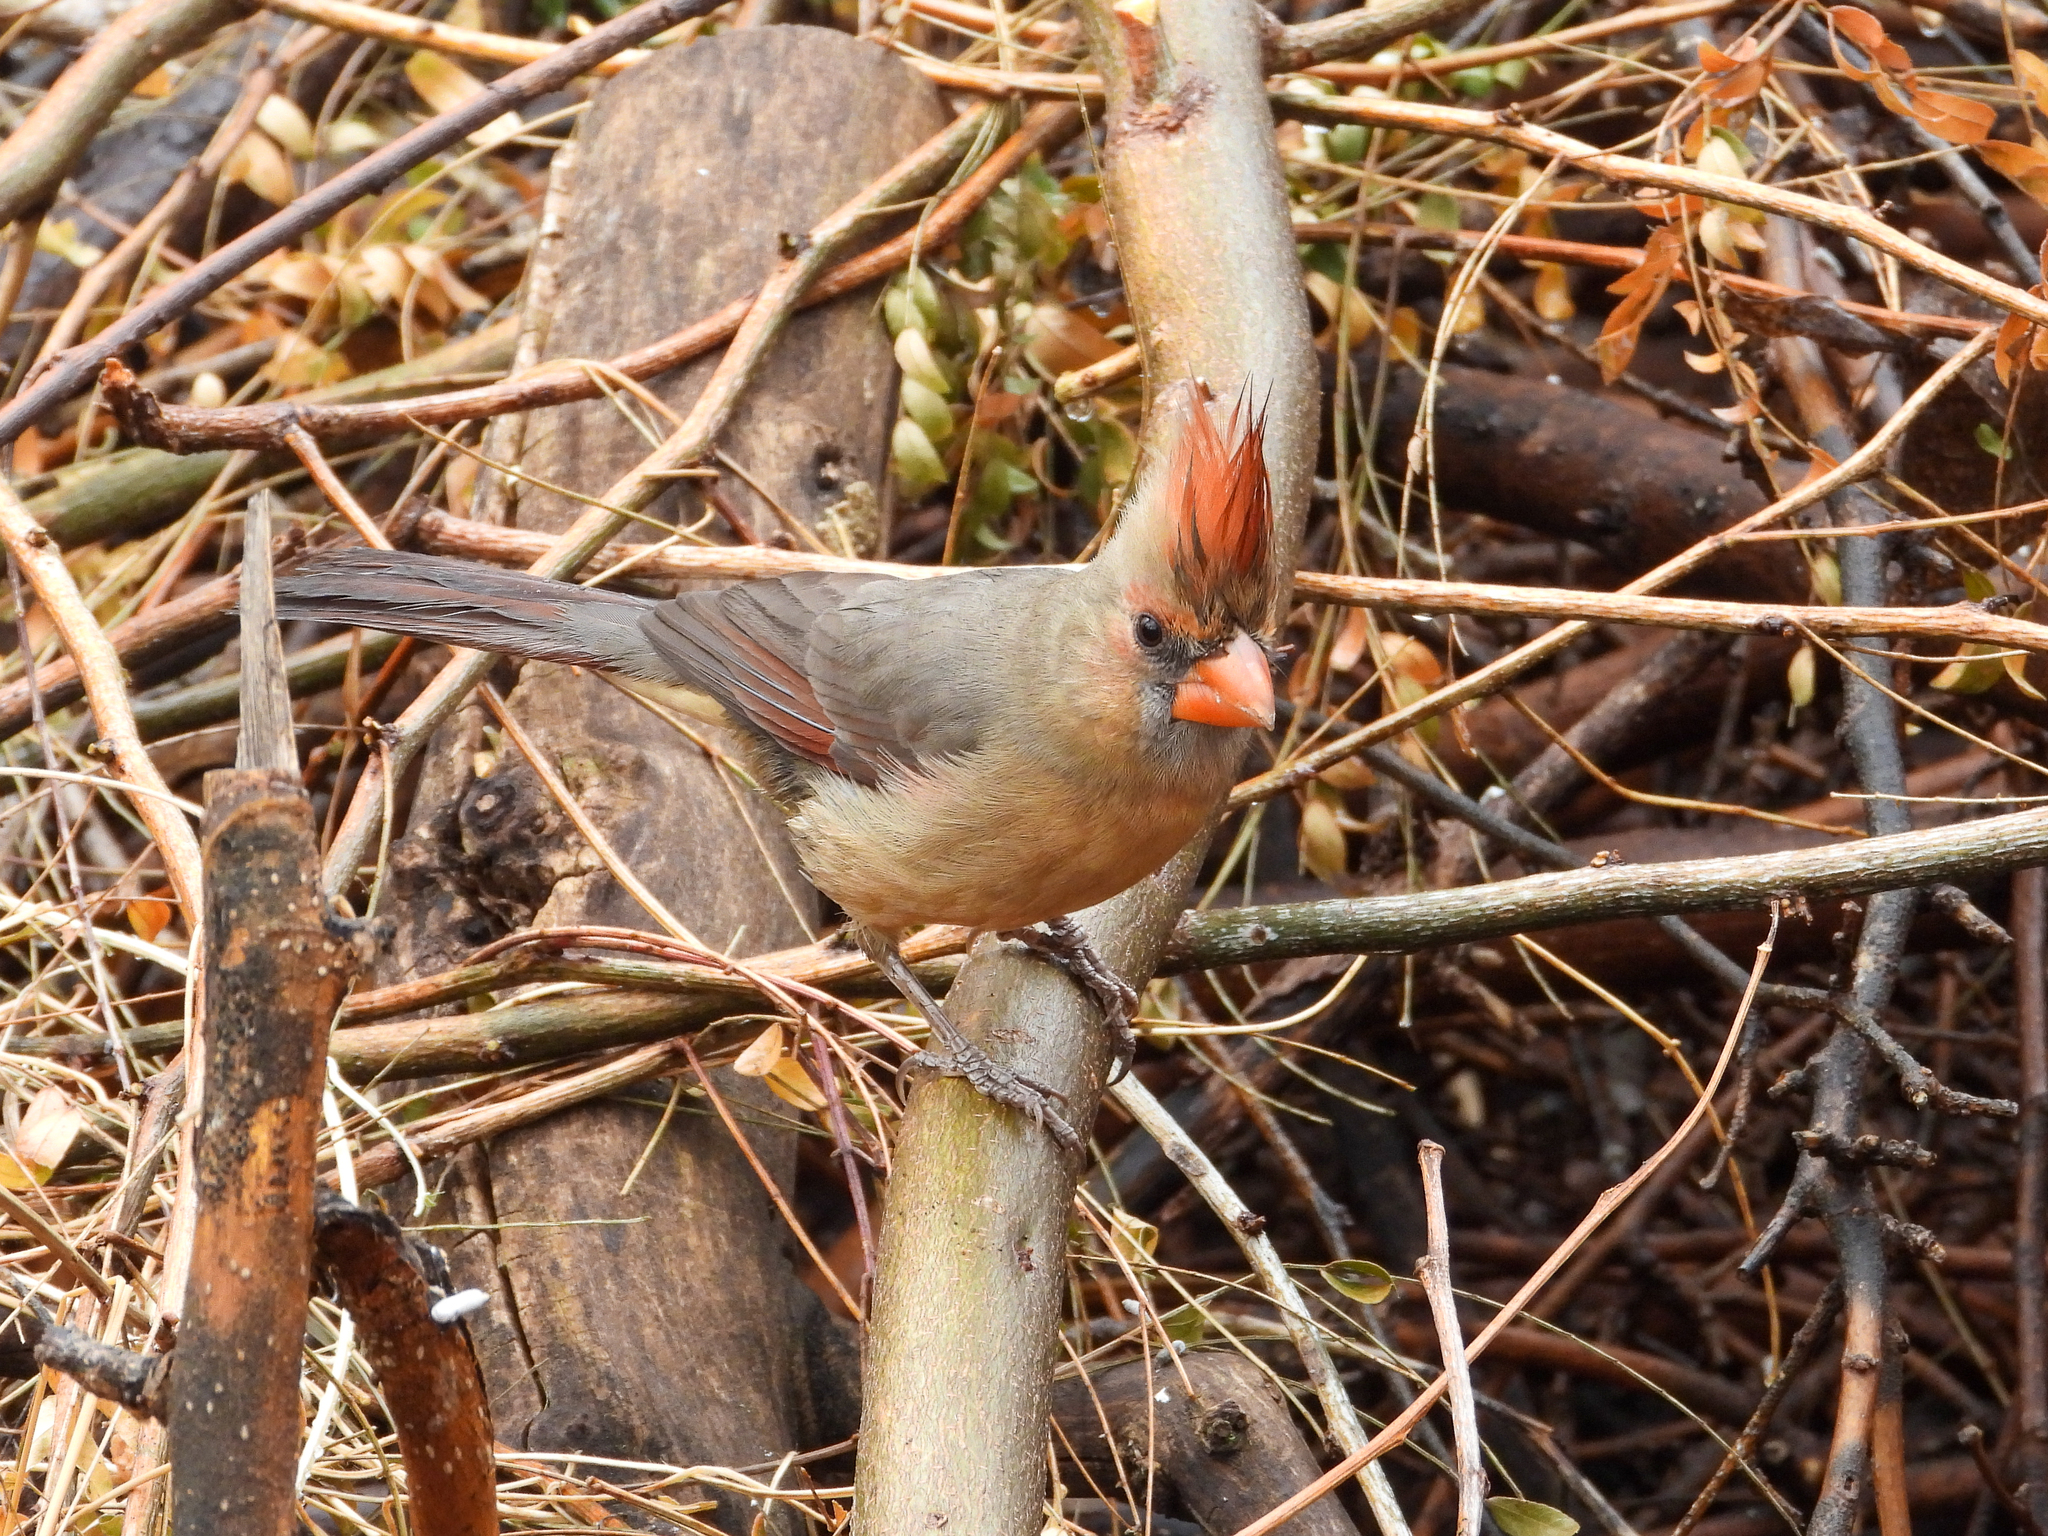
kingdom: Animalia
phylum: Chordata
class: Aves
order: Passeriformes
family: Cardinalidae
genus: Cardinalis
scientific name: Cardinalis cardinalis
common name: Northern cardinal
